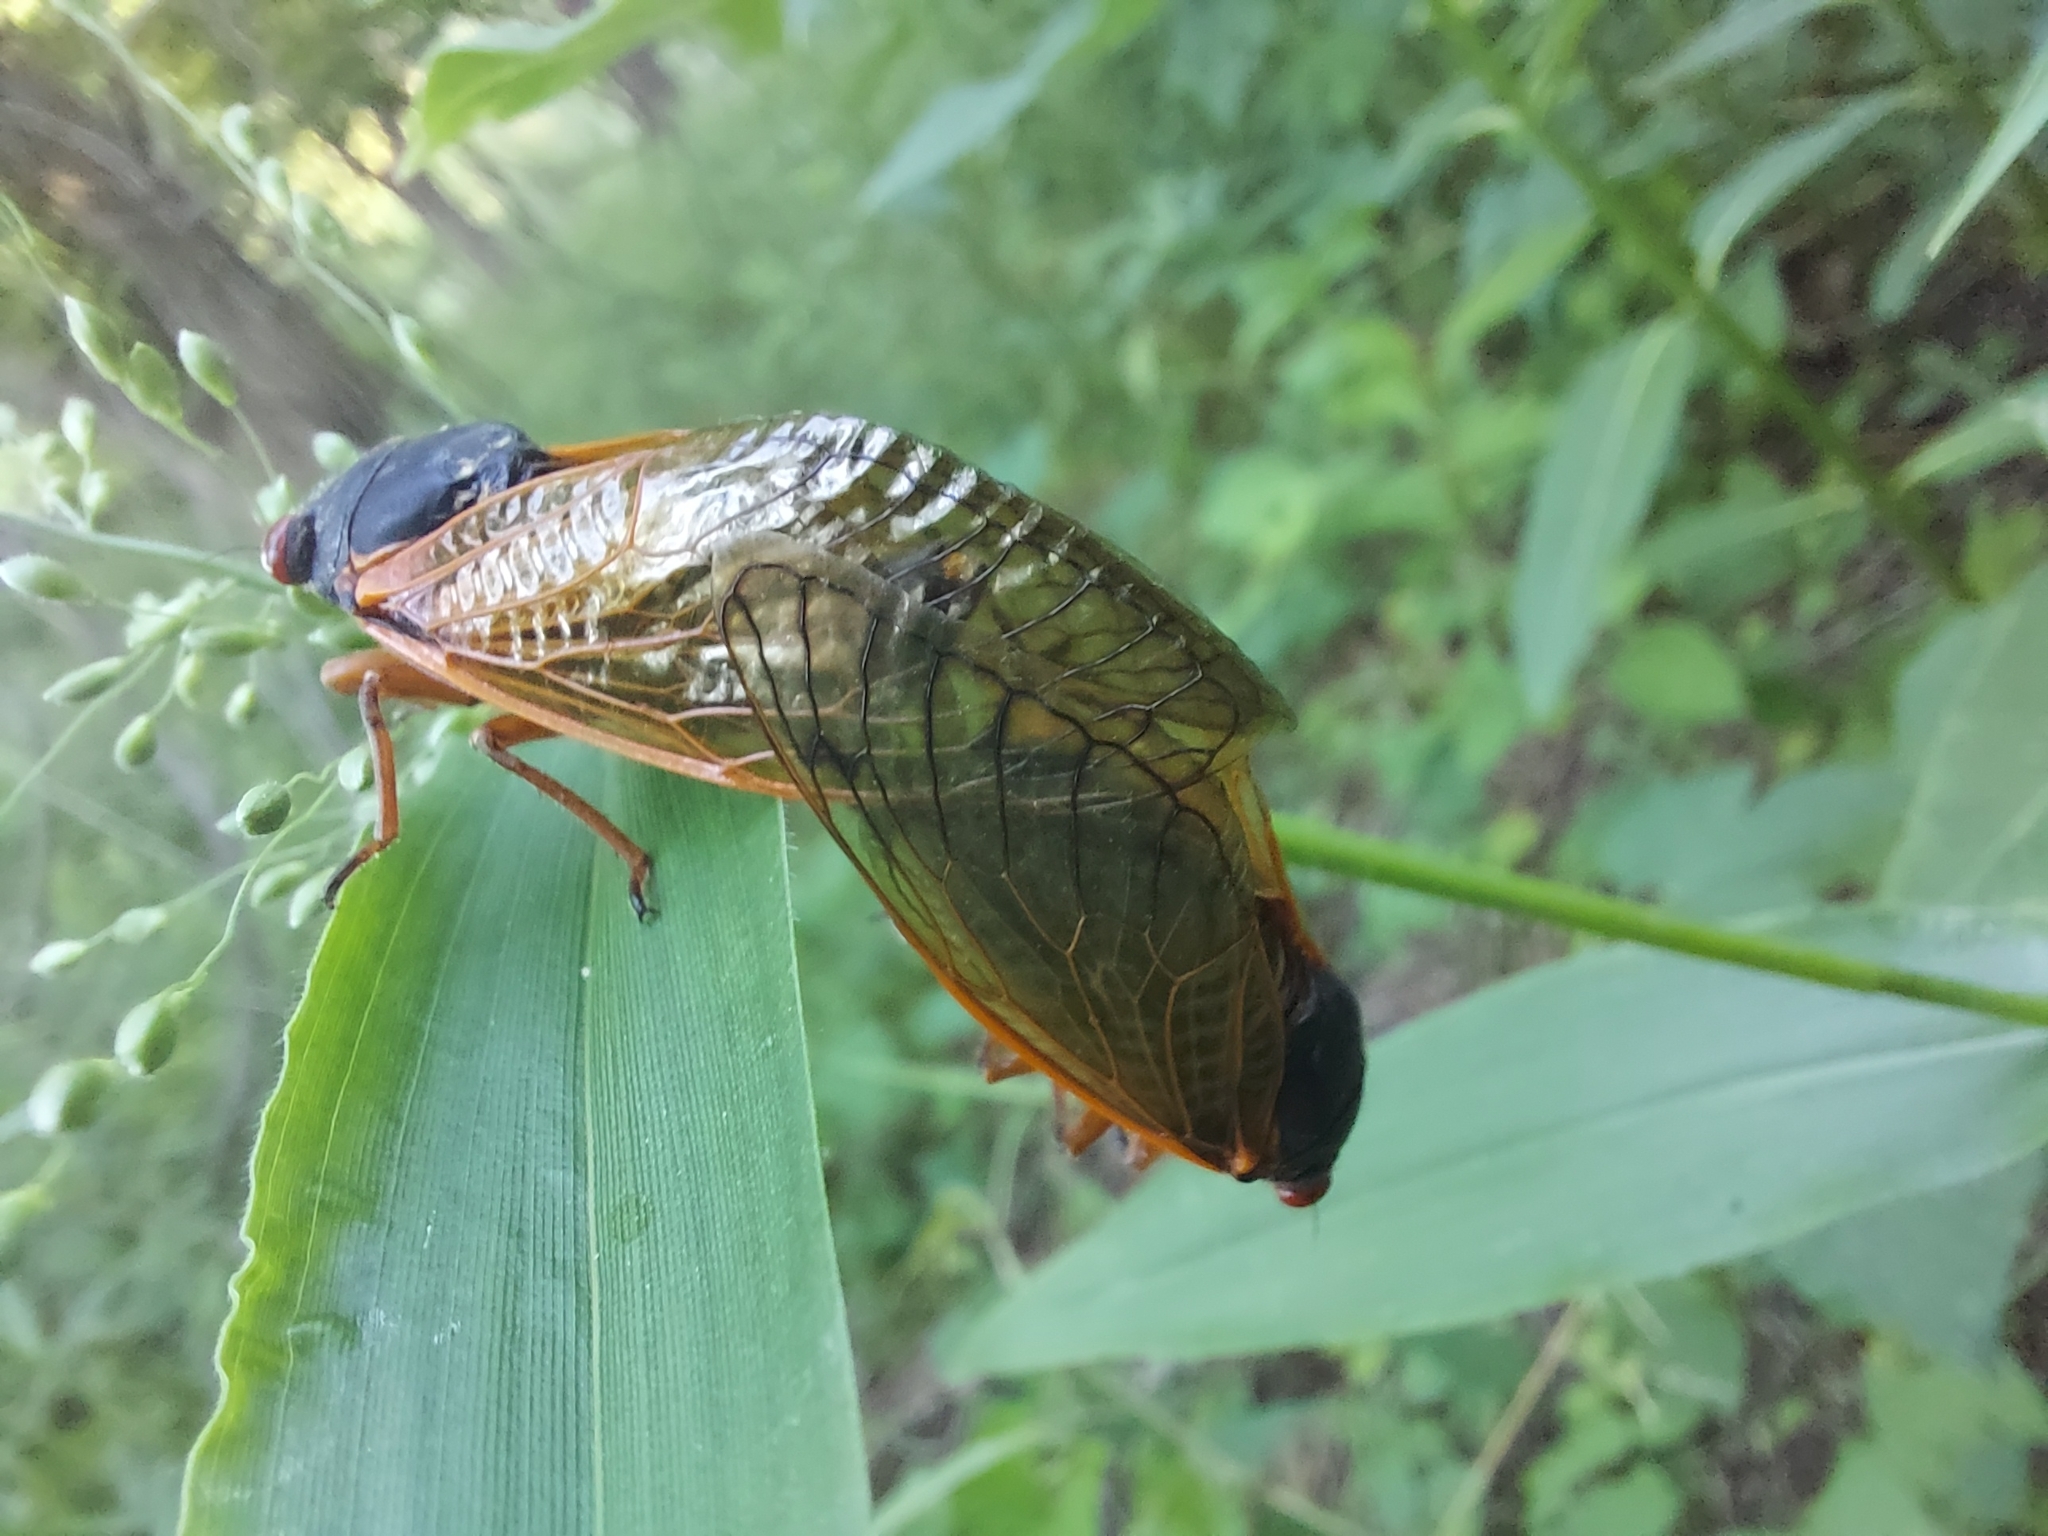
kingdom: Animalia
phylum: Arthropoda
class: Insecta
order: Hemiptera
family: Cicadidae
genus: Magicicada
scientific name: Magicicada cassini
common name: Cassin's 17-year cicada
